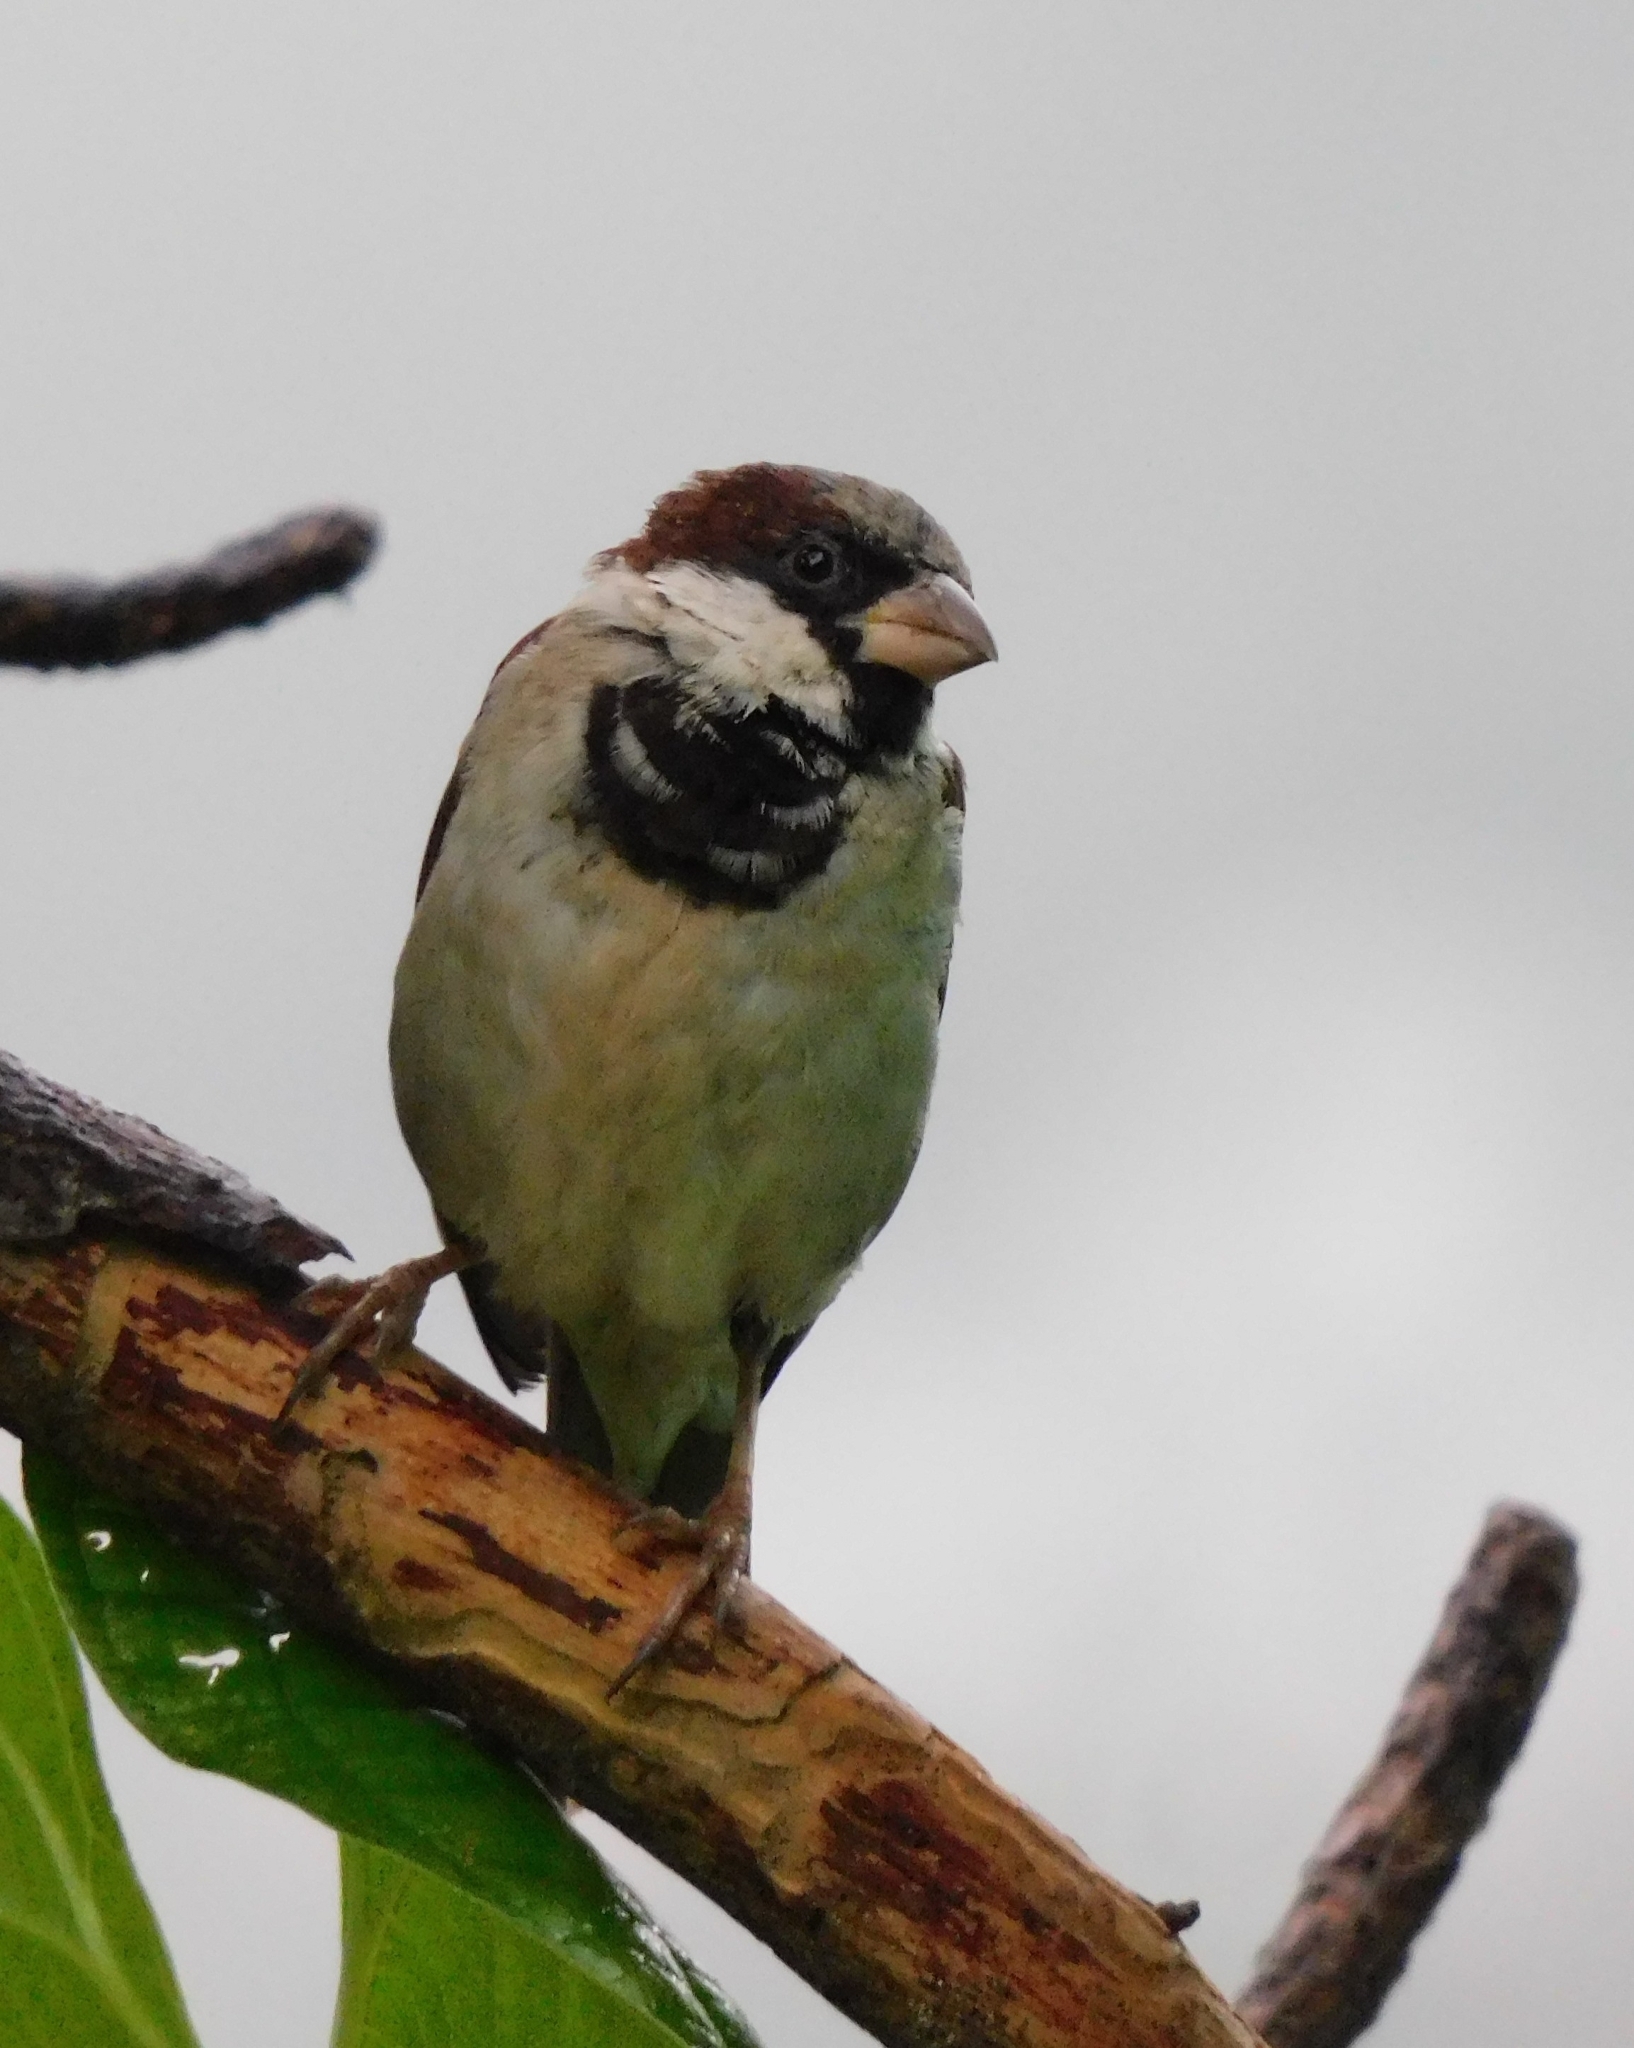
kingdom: Animalia
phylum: Chordata
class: Aves
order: Passeriformes
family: Passeridae
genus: Passer
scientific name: Passer domesticus
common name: House sparrow
